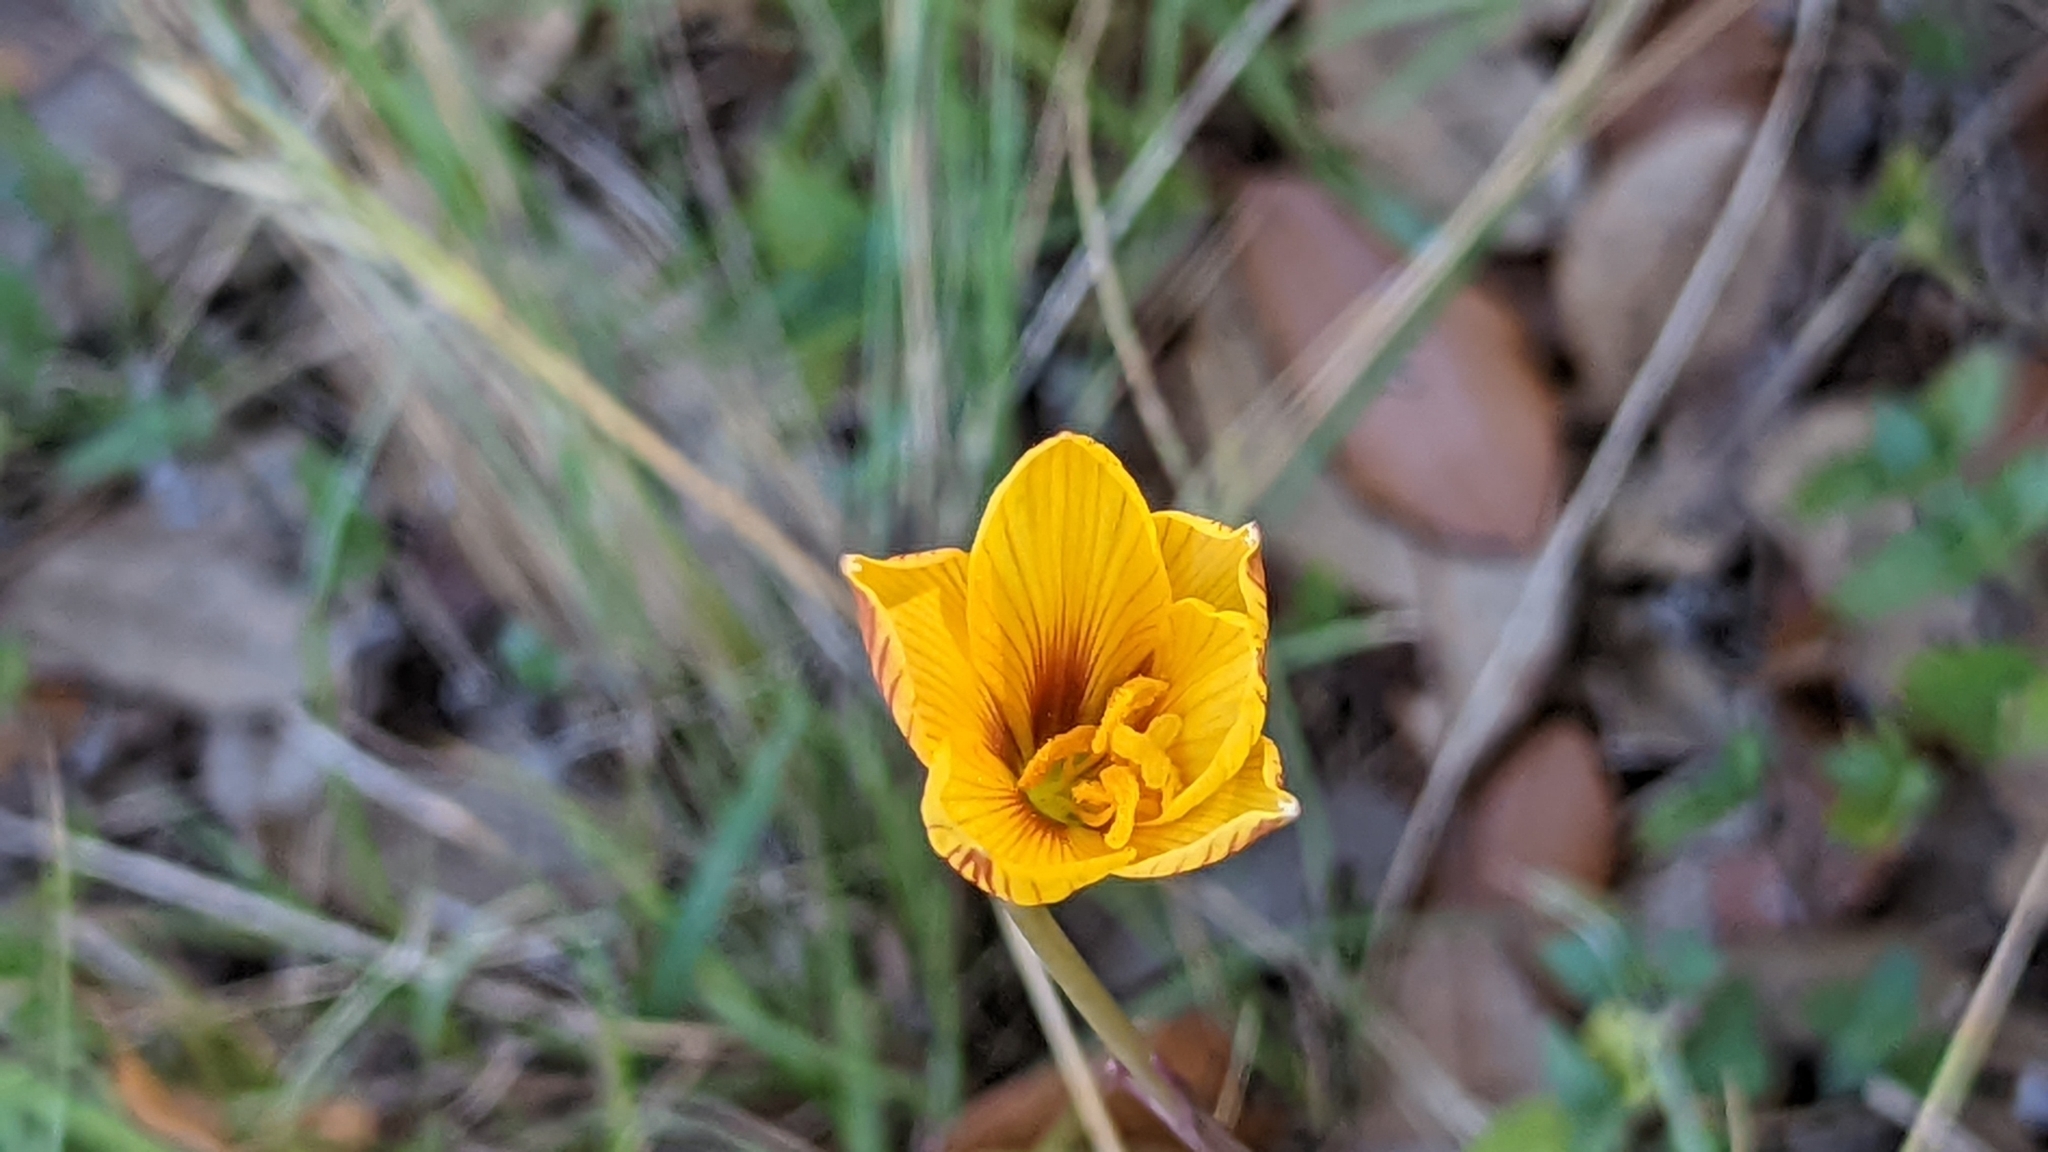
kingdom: Plantae
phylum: Tracheophyta
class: Liliopsida
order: Asparagales
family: Amaryllidaceae
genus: Zephyranthes
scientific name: Zephyranthes tubispatha
